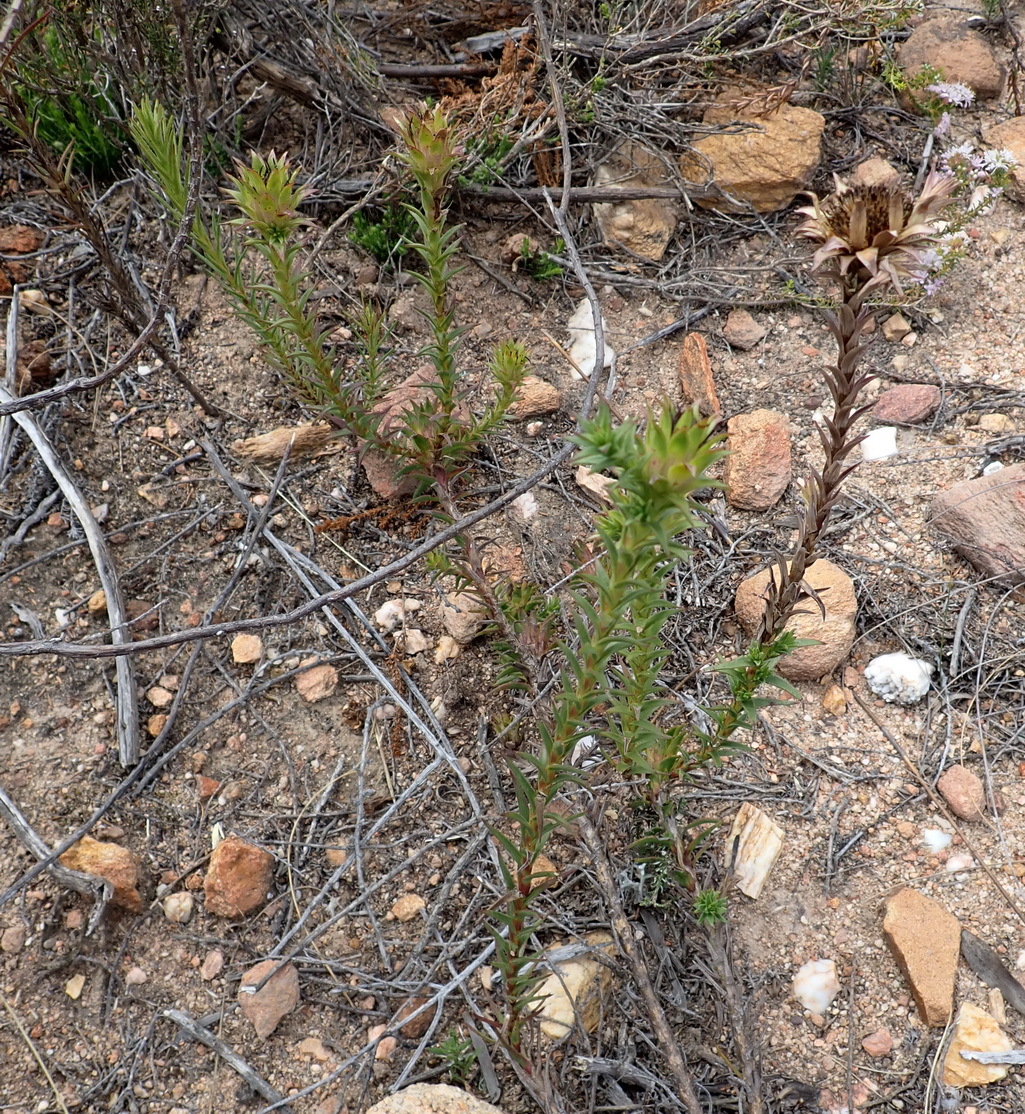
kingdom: Plantae
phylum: Tracheophyta
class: Magnoliopsida
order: Asterales
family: Asteraceae
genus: Oedera
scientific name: Oedera imbricata
